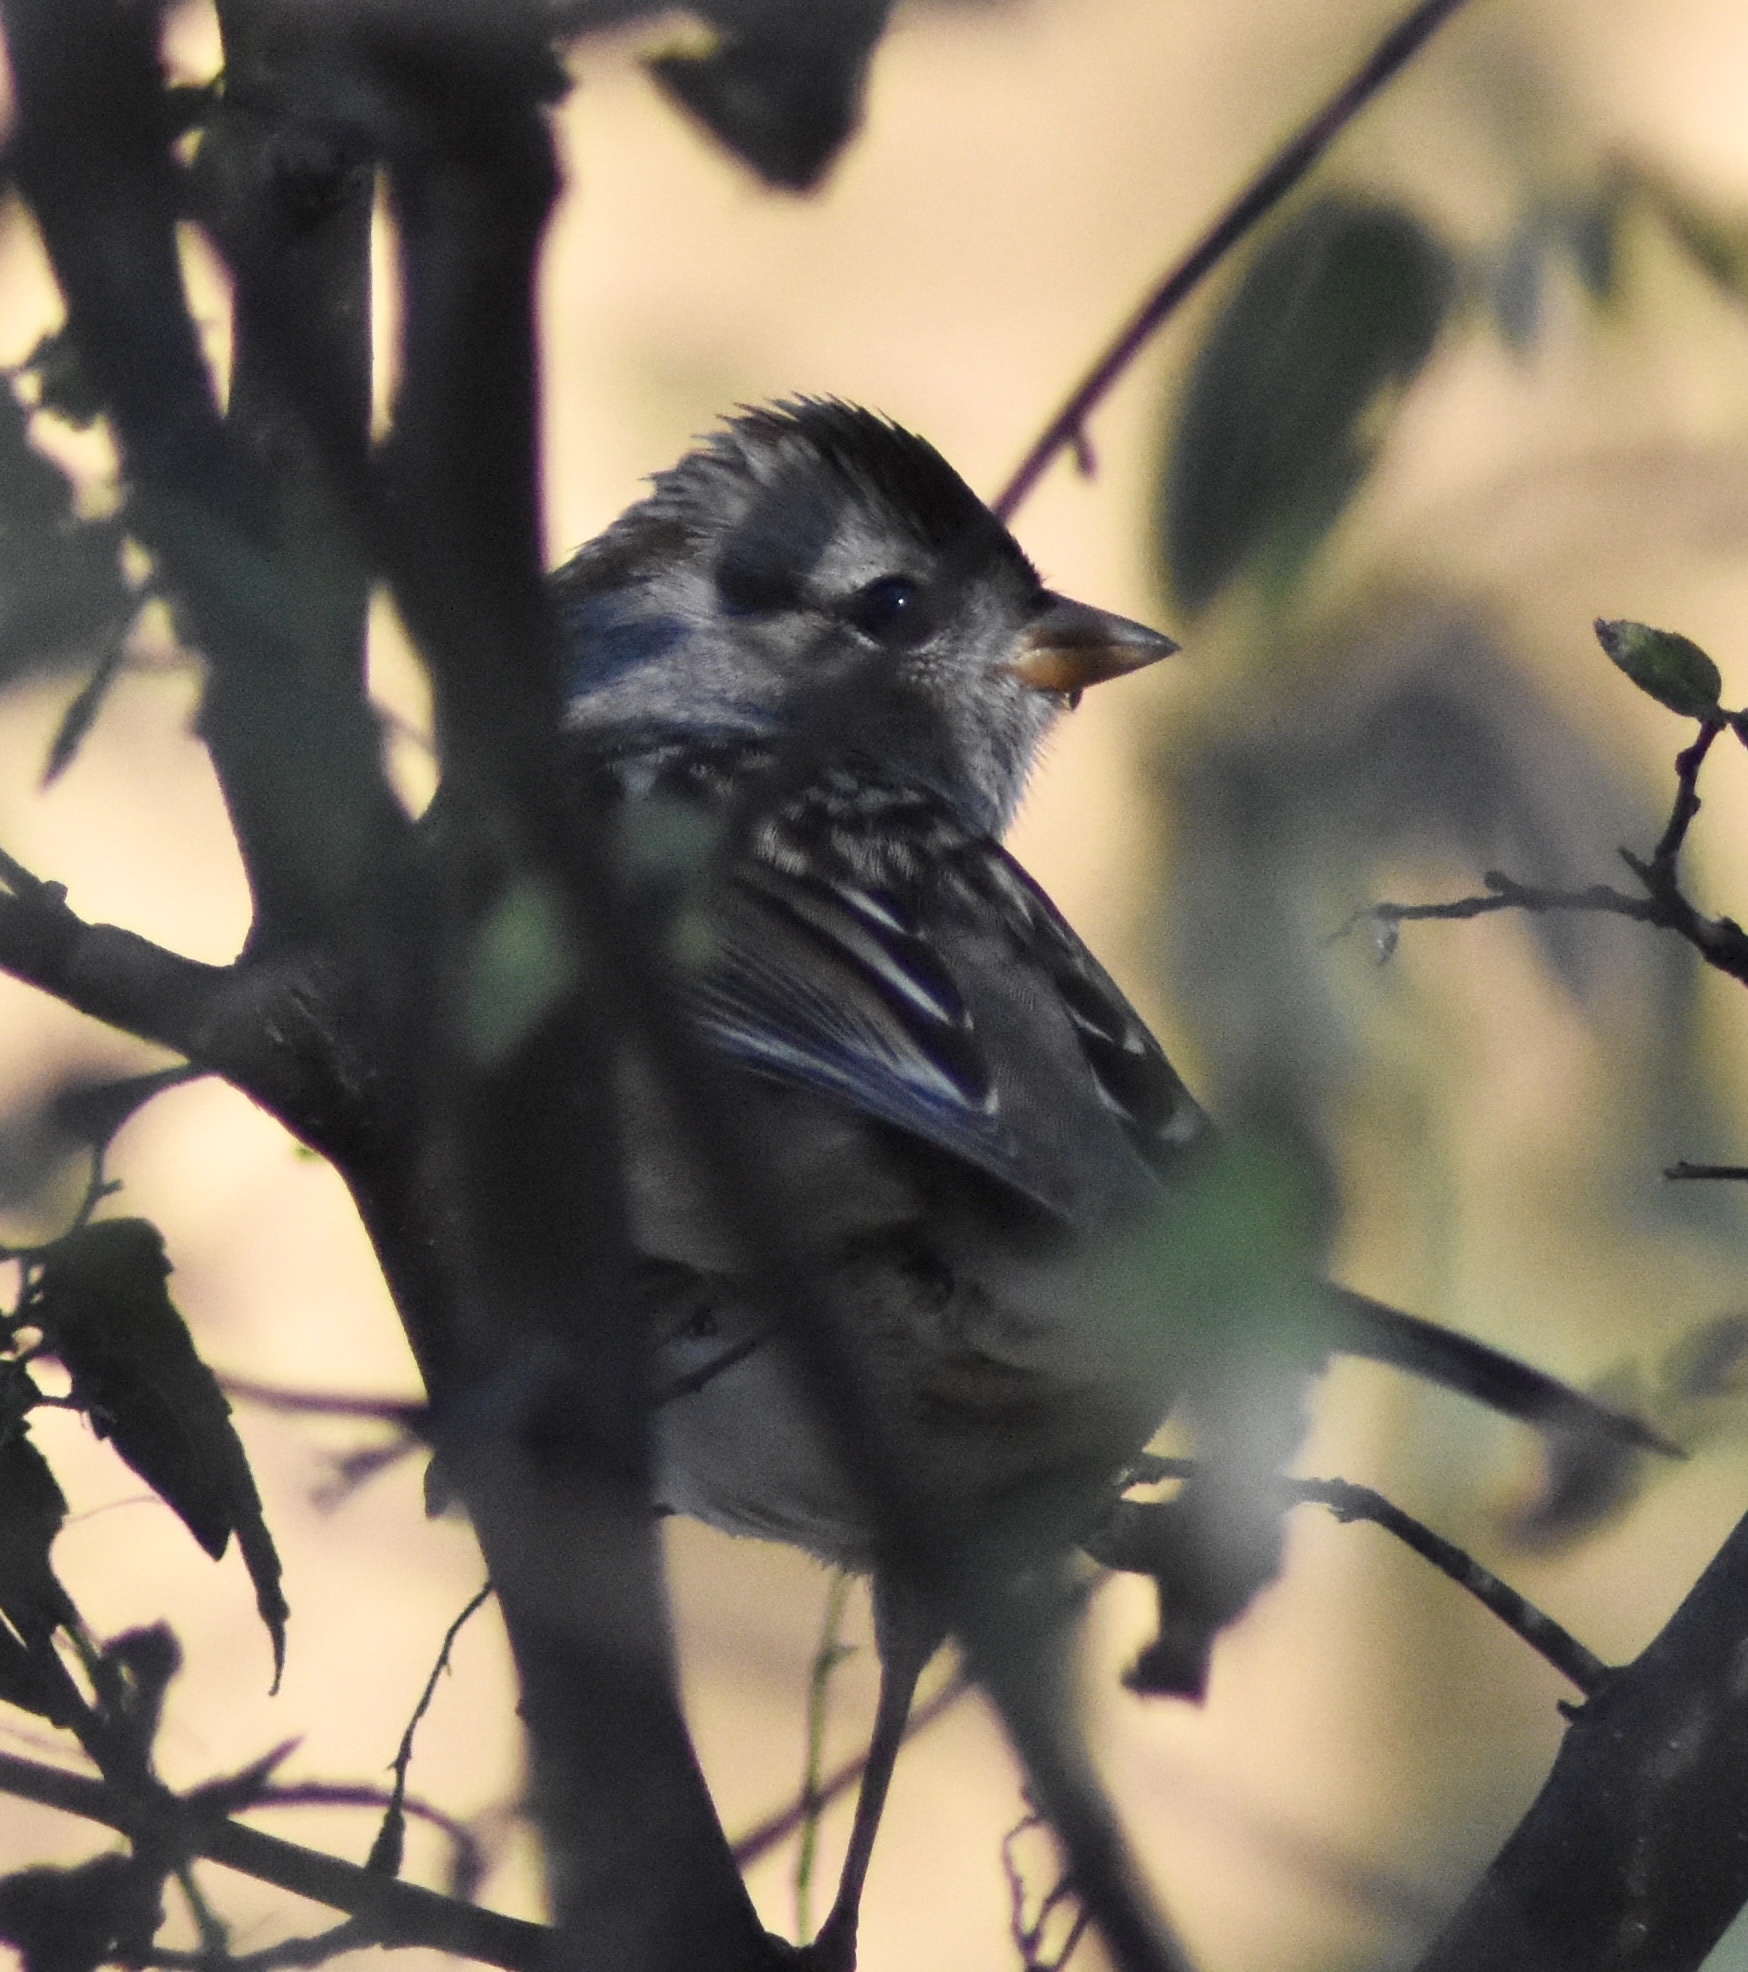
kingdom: Animalia
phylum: Chordata
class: Aves
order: Passeriformes
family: Passerellidae
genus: Zonotrichia
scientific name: Zonotrichia leucophrys
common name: White-crowned sparrow
